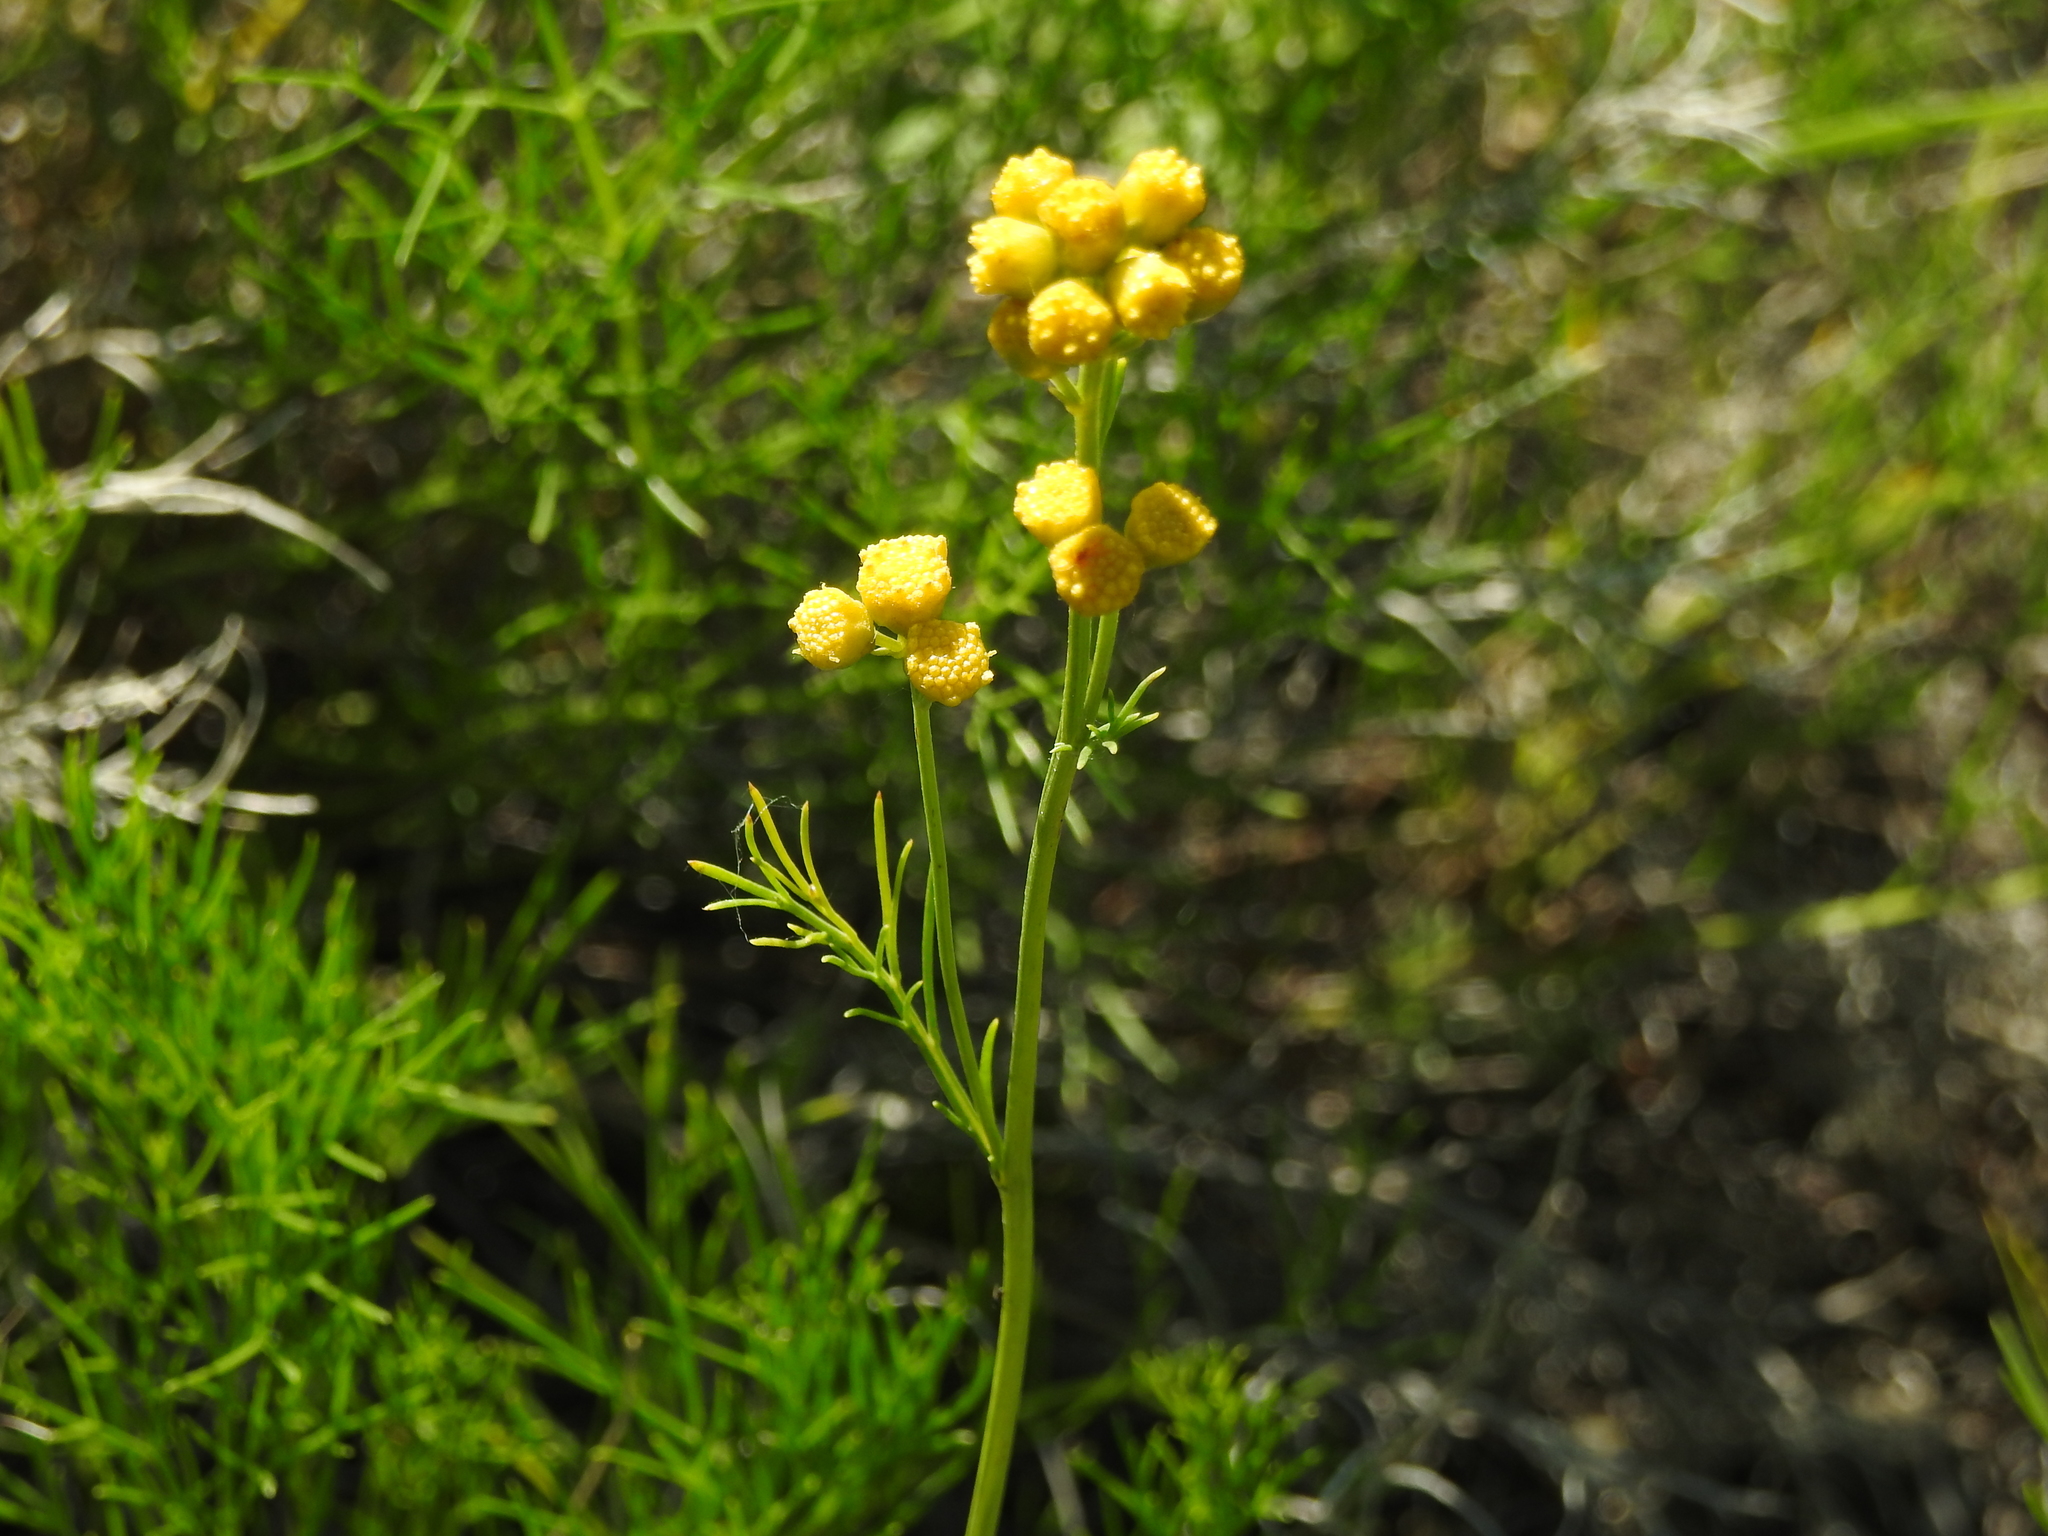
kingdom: Plantae
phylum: Tracheophyta
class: Magnoliopsida
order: Asterales
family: Asteraceae
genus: Tanacetum
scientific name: Tanacetum vulgare
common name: Common tansy
